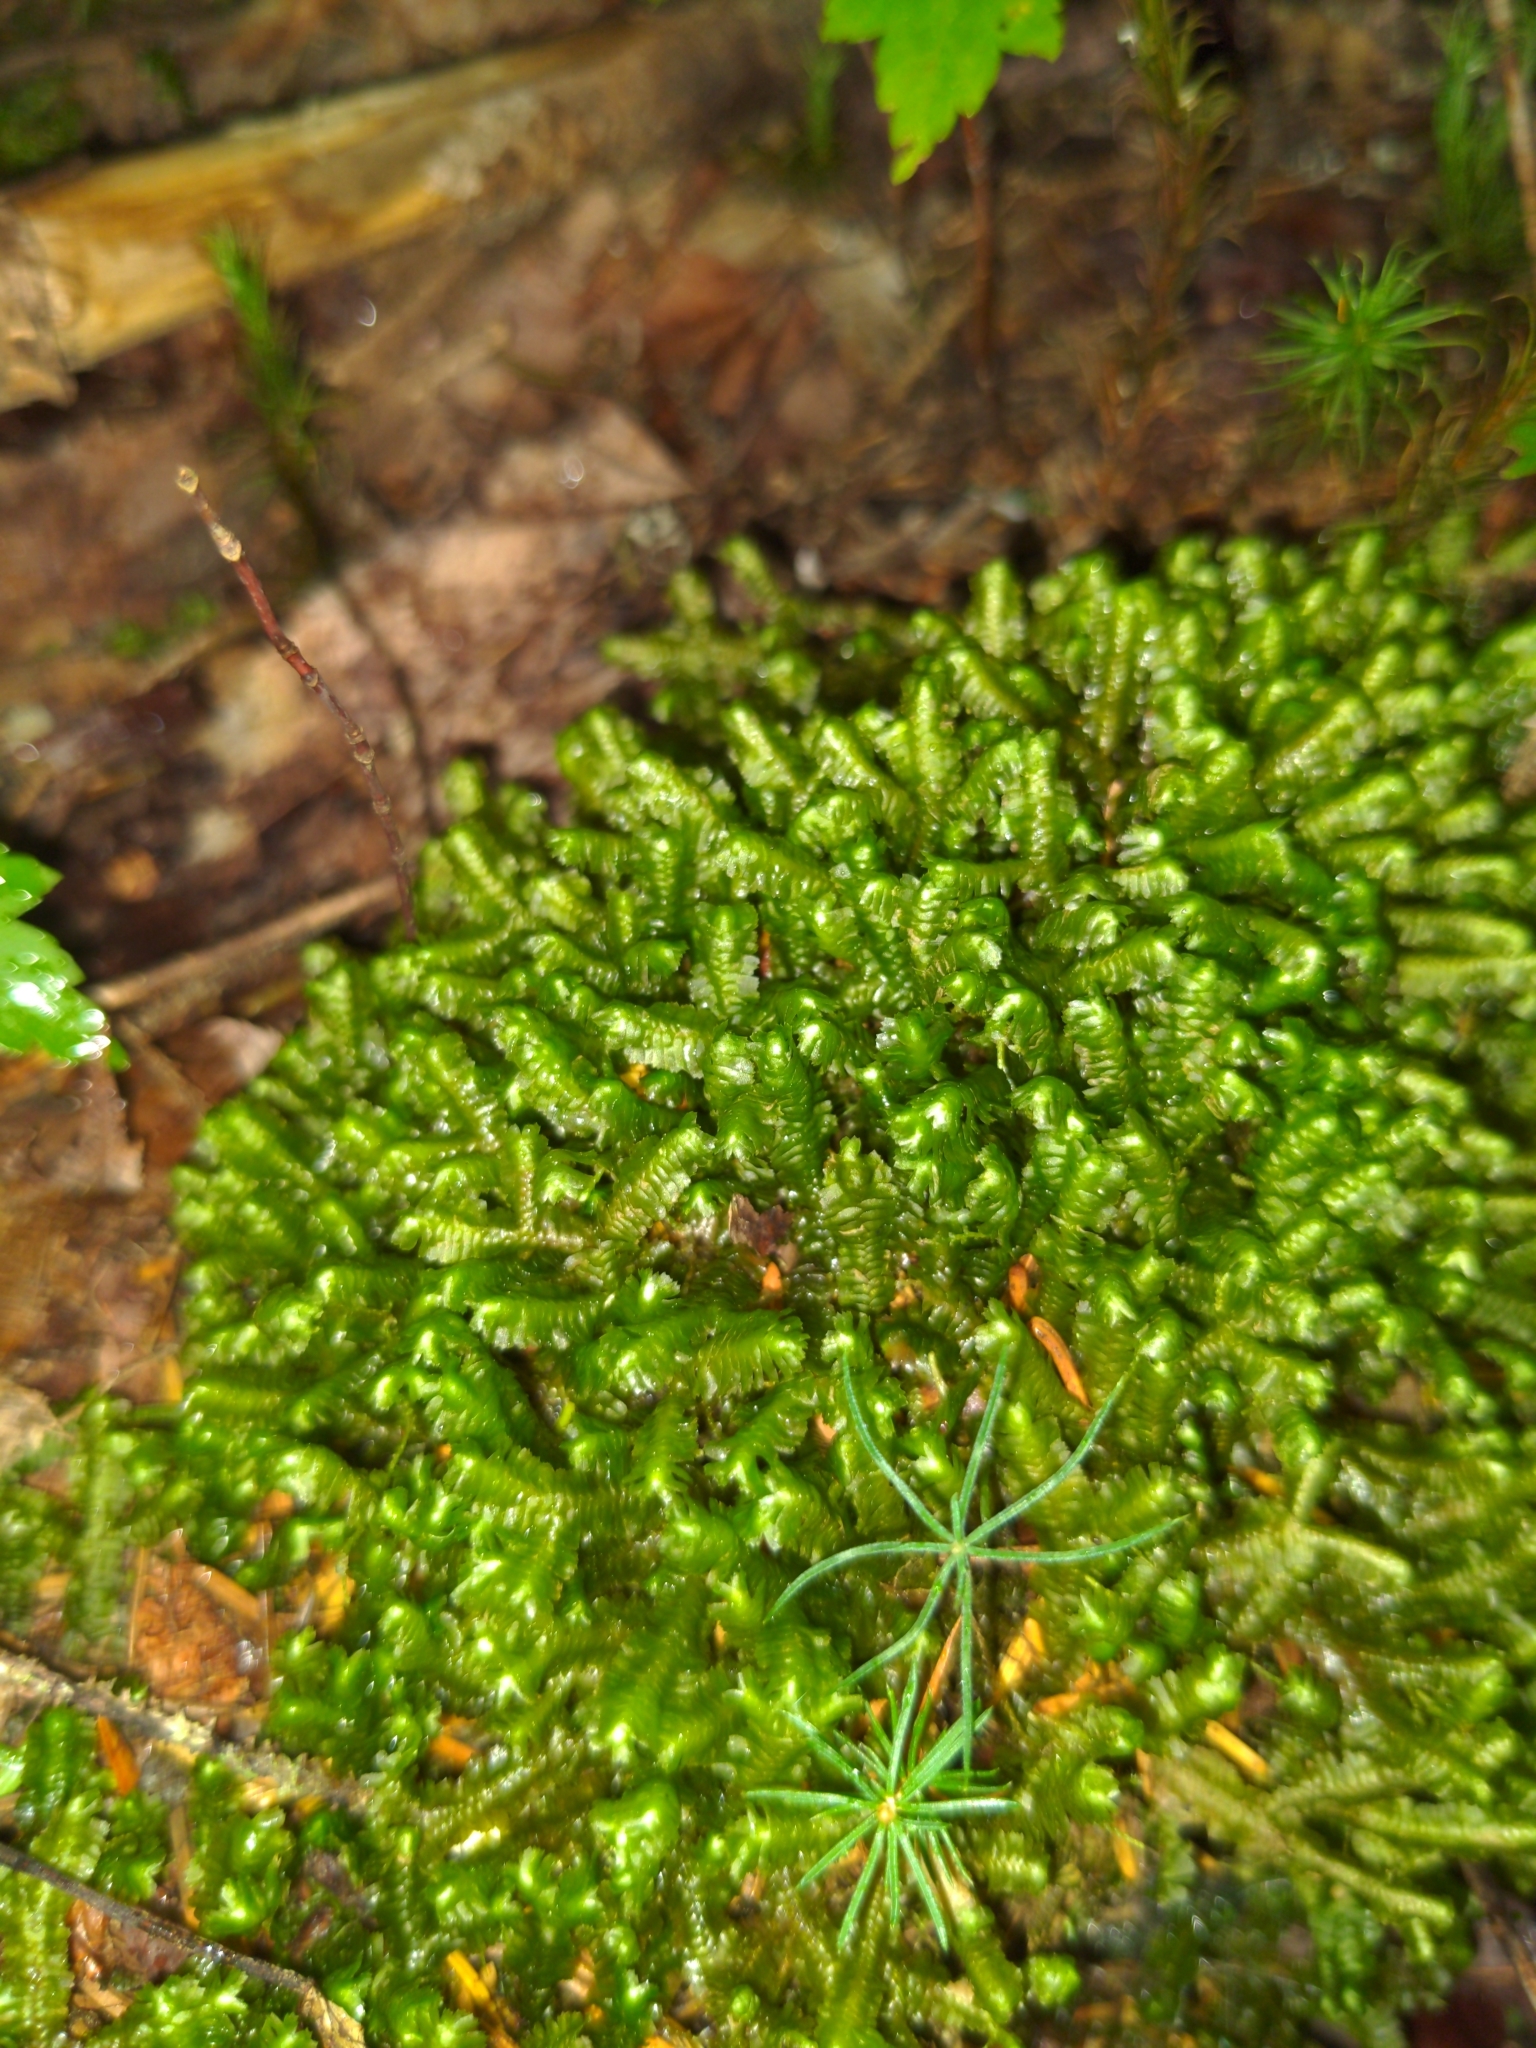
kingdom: Plantae
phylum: Marchantiophyta
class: Jungermanniopsida
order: Jungermanniales
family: Lepidoziaceae
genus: Bazzania
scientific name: Bazzania trilobata
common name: Three-lobed whipwort
